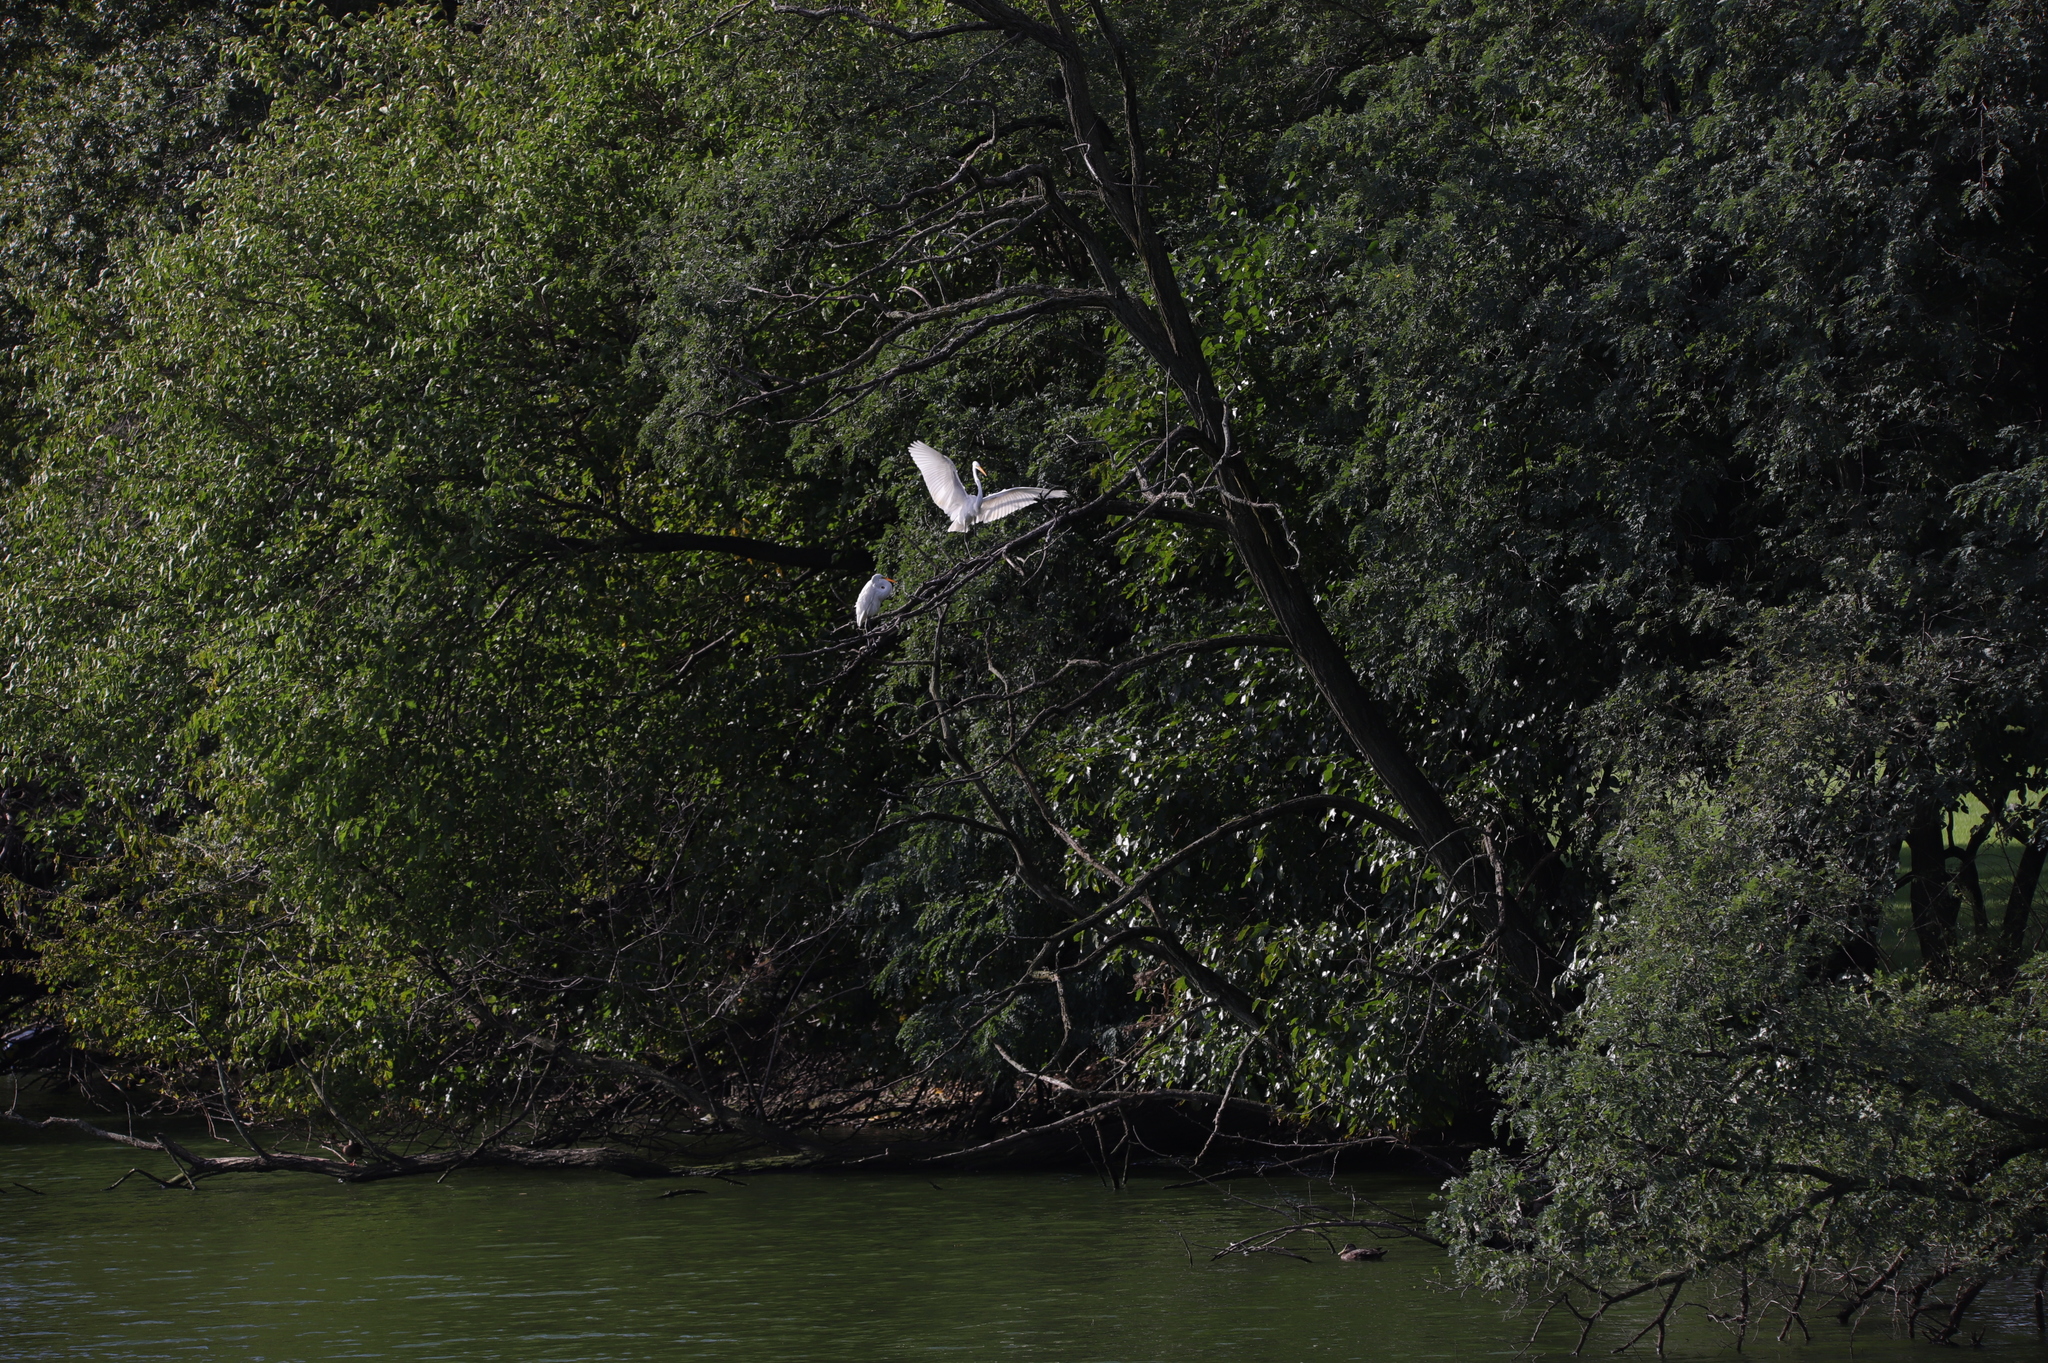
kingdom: Animalia
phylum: Chordata
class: Aves
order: Pelecaniformes
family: Ardeidae
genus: Ardea
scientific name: Ardea alba
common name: Great egret
